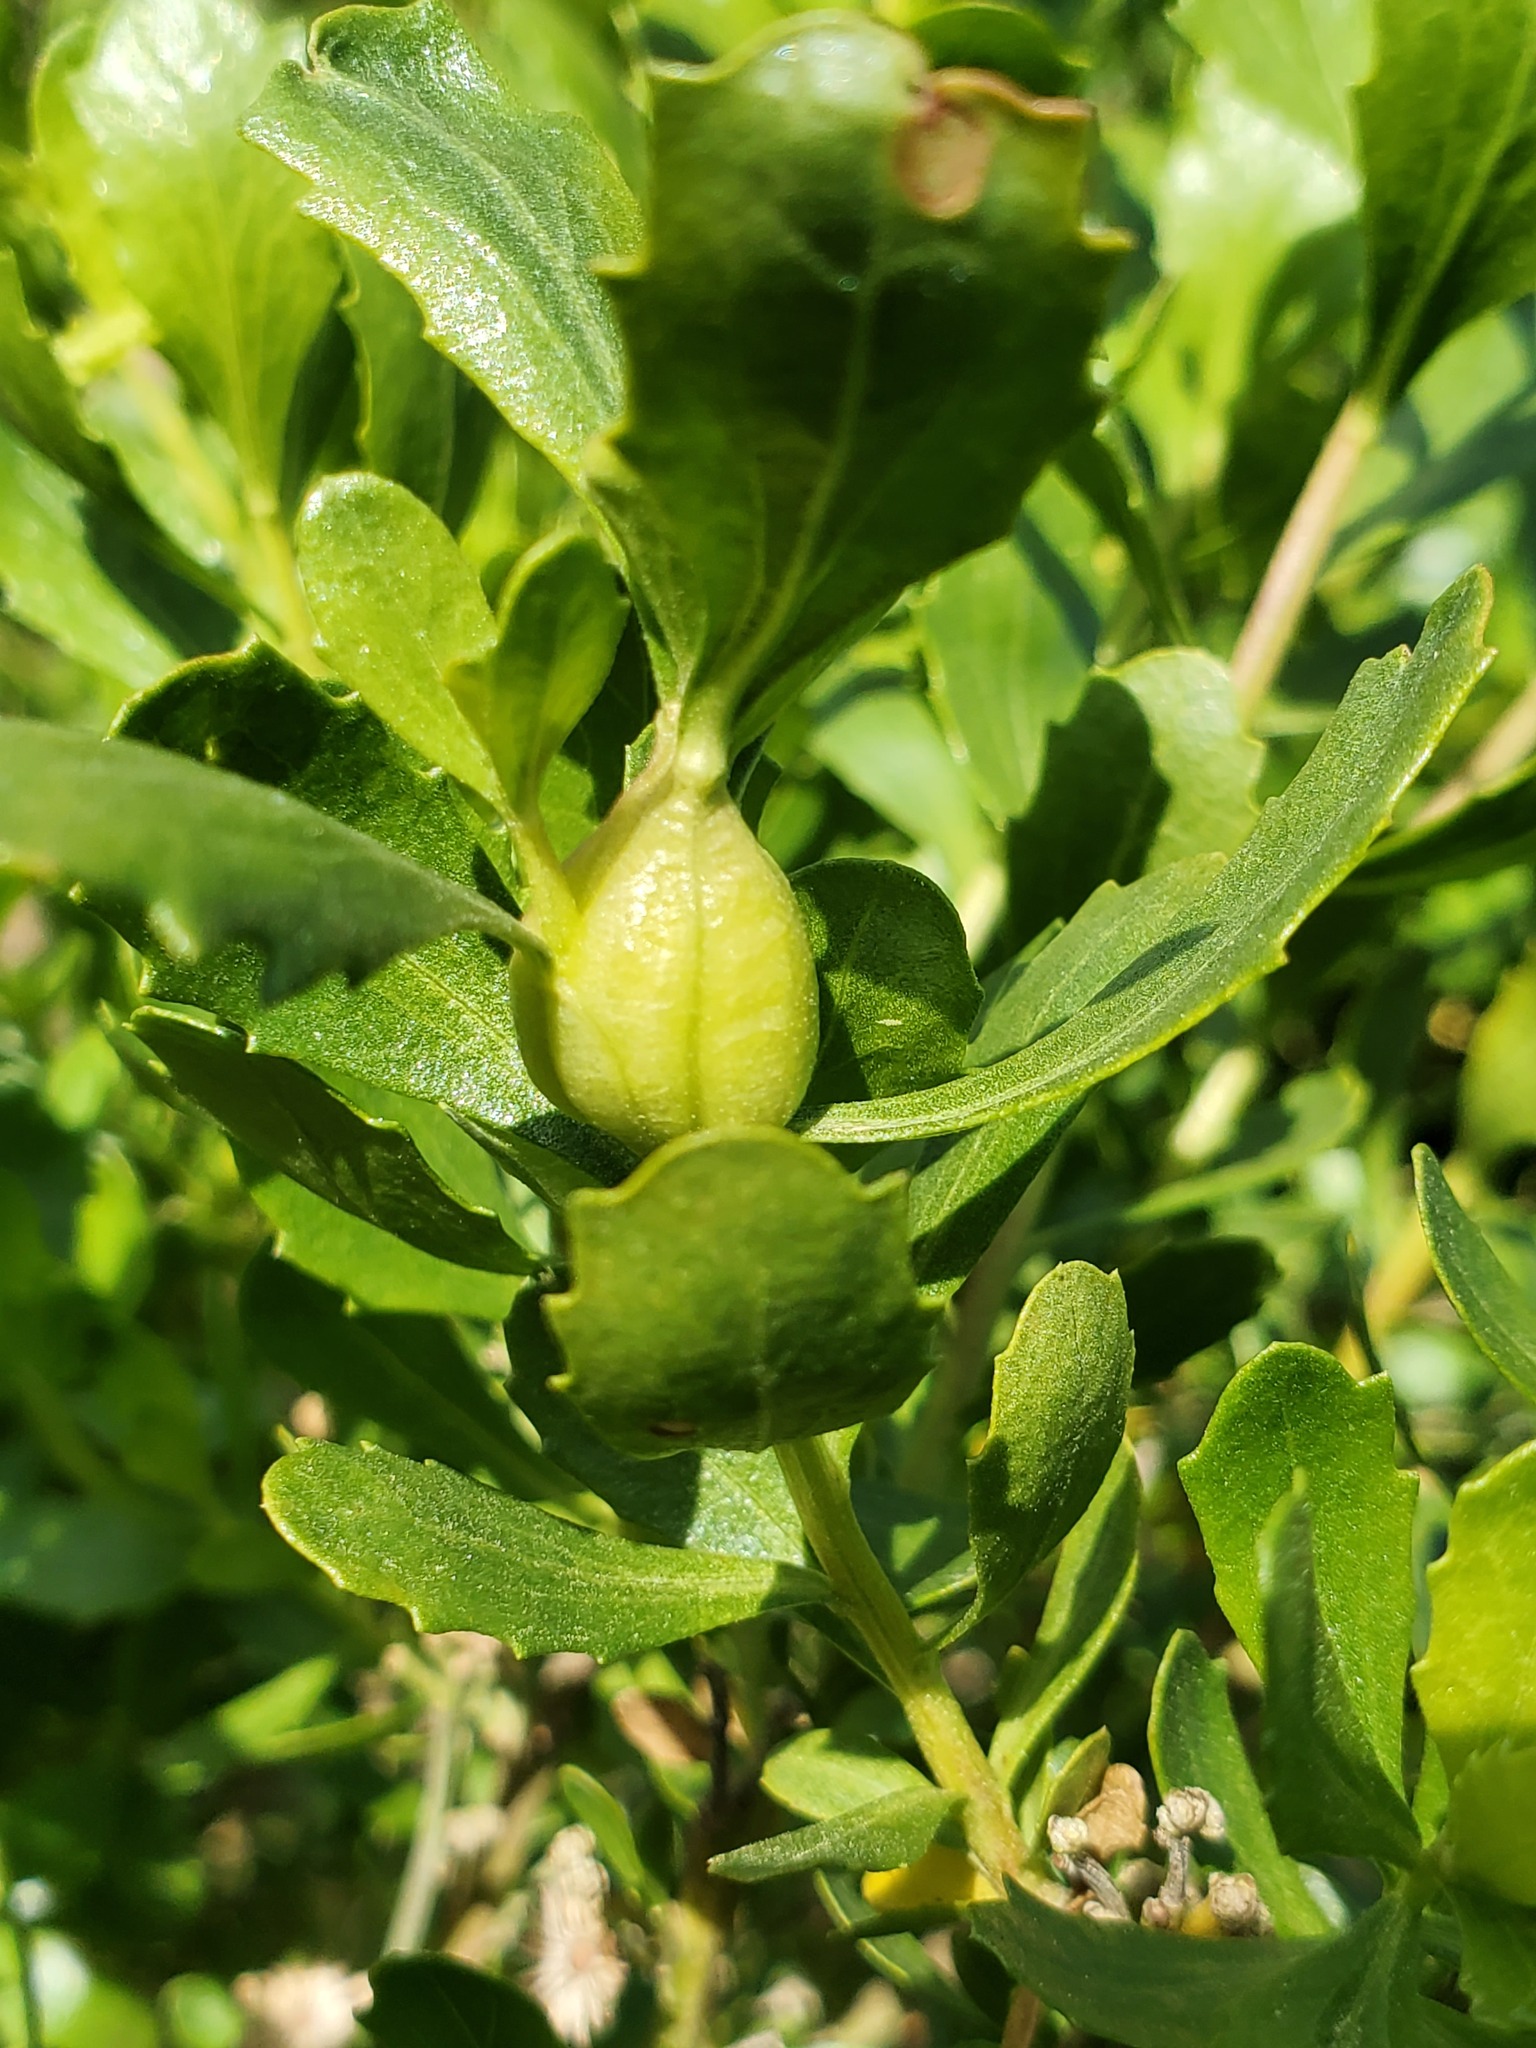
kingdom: Animalia
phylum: Arthropoda
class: Insecta
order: Lepidoptera
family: Gelechiidae
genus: Gnorimoschema
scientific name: Gnorimoschema baccharisella
